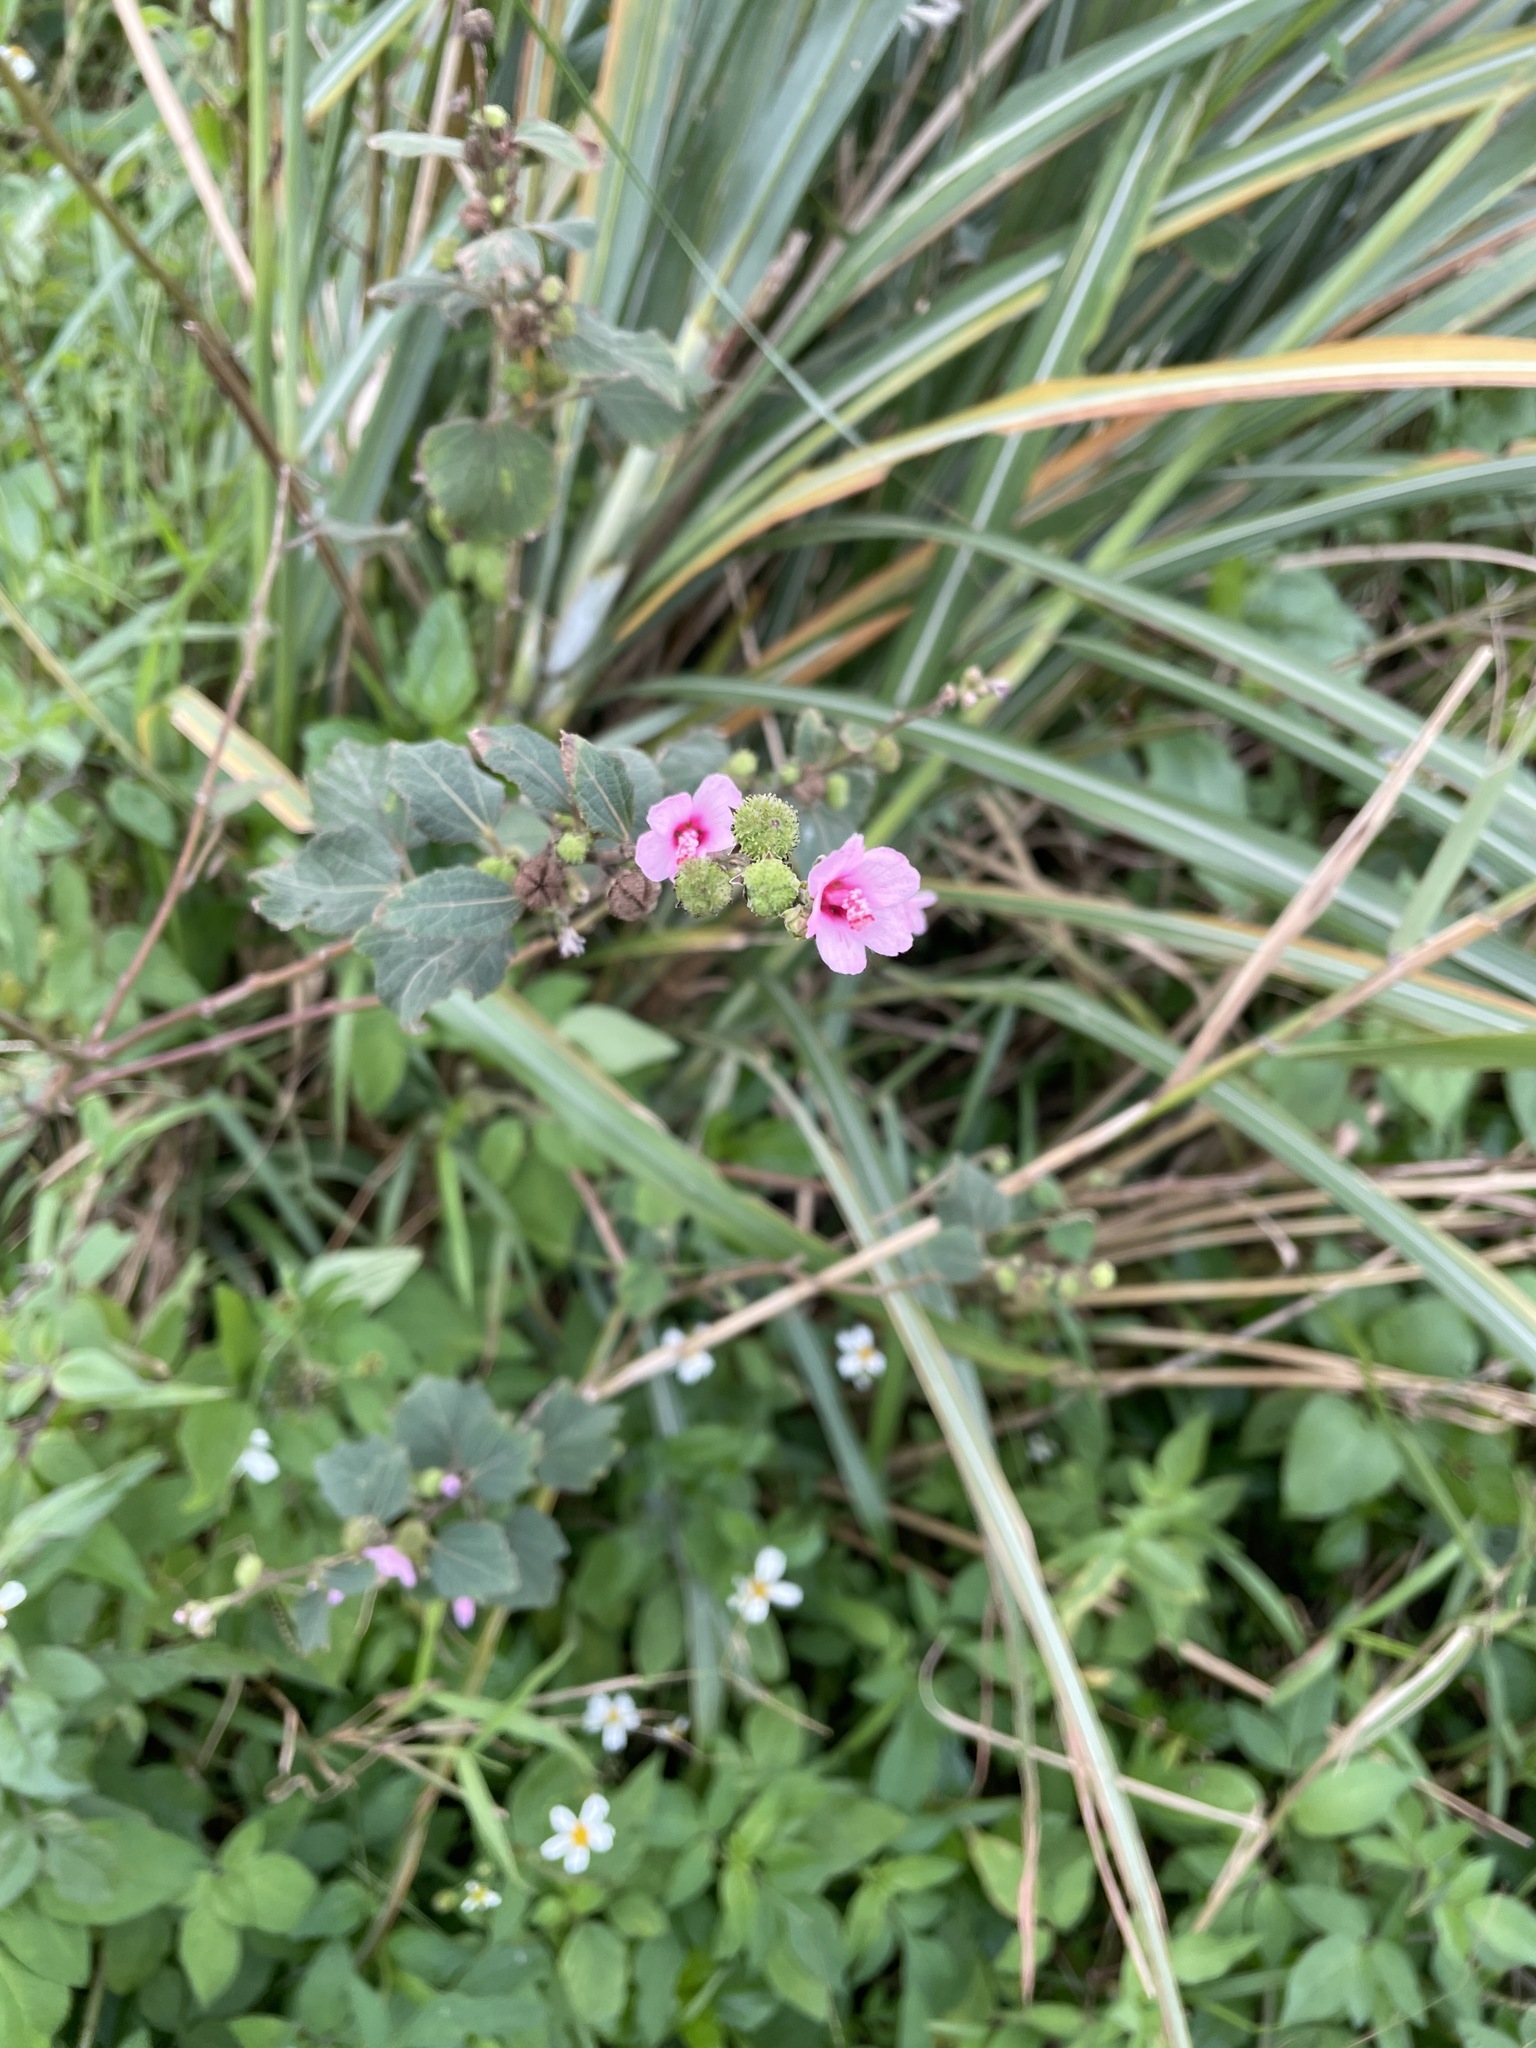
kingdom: Plantae
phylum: Tracheophyta
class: Magnoliopsida
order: Malvales
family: Malvaceae
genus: Urena
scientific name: Urena lobata
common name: Caesarweed
